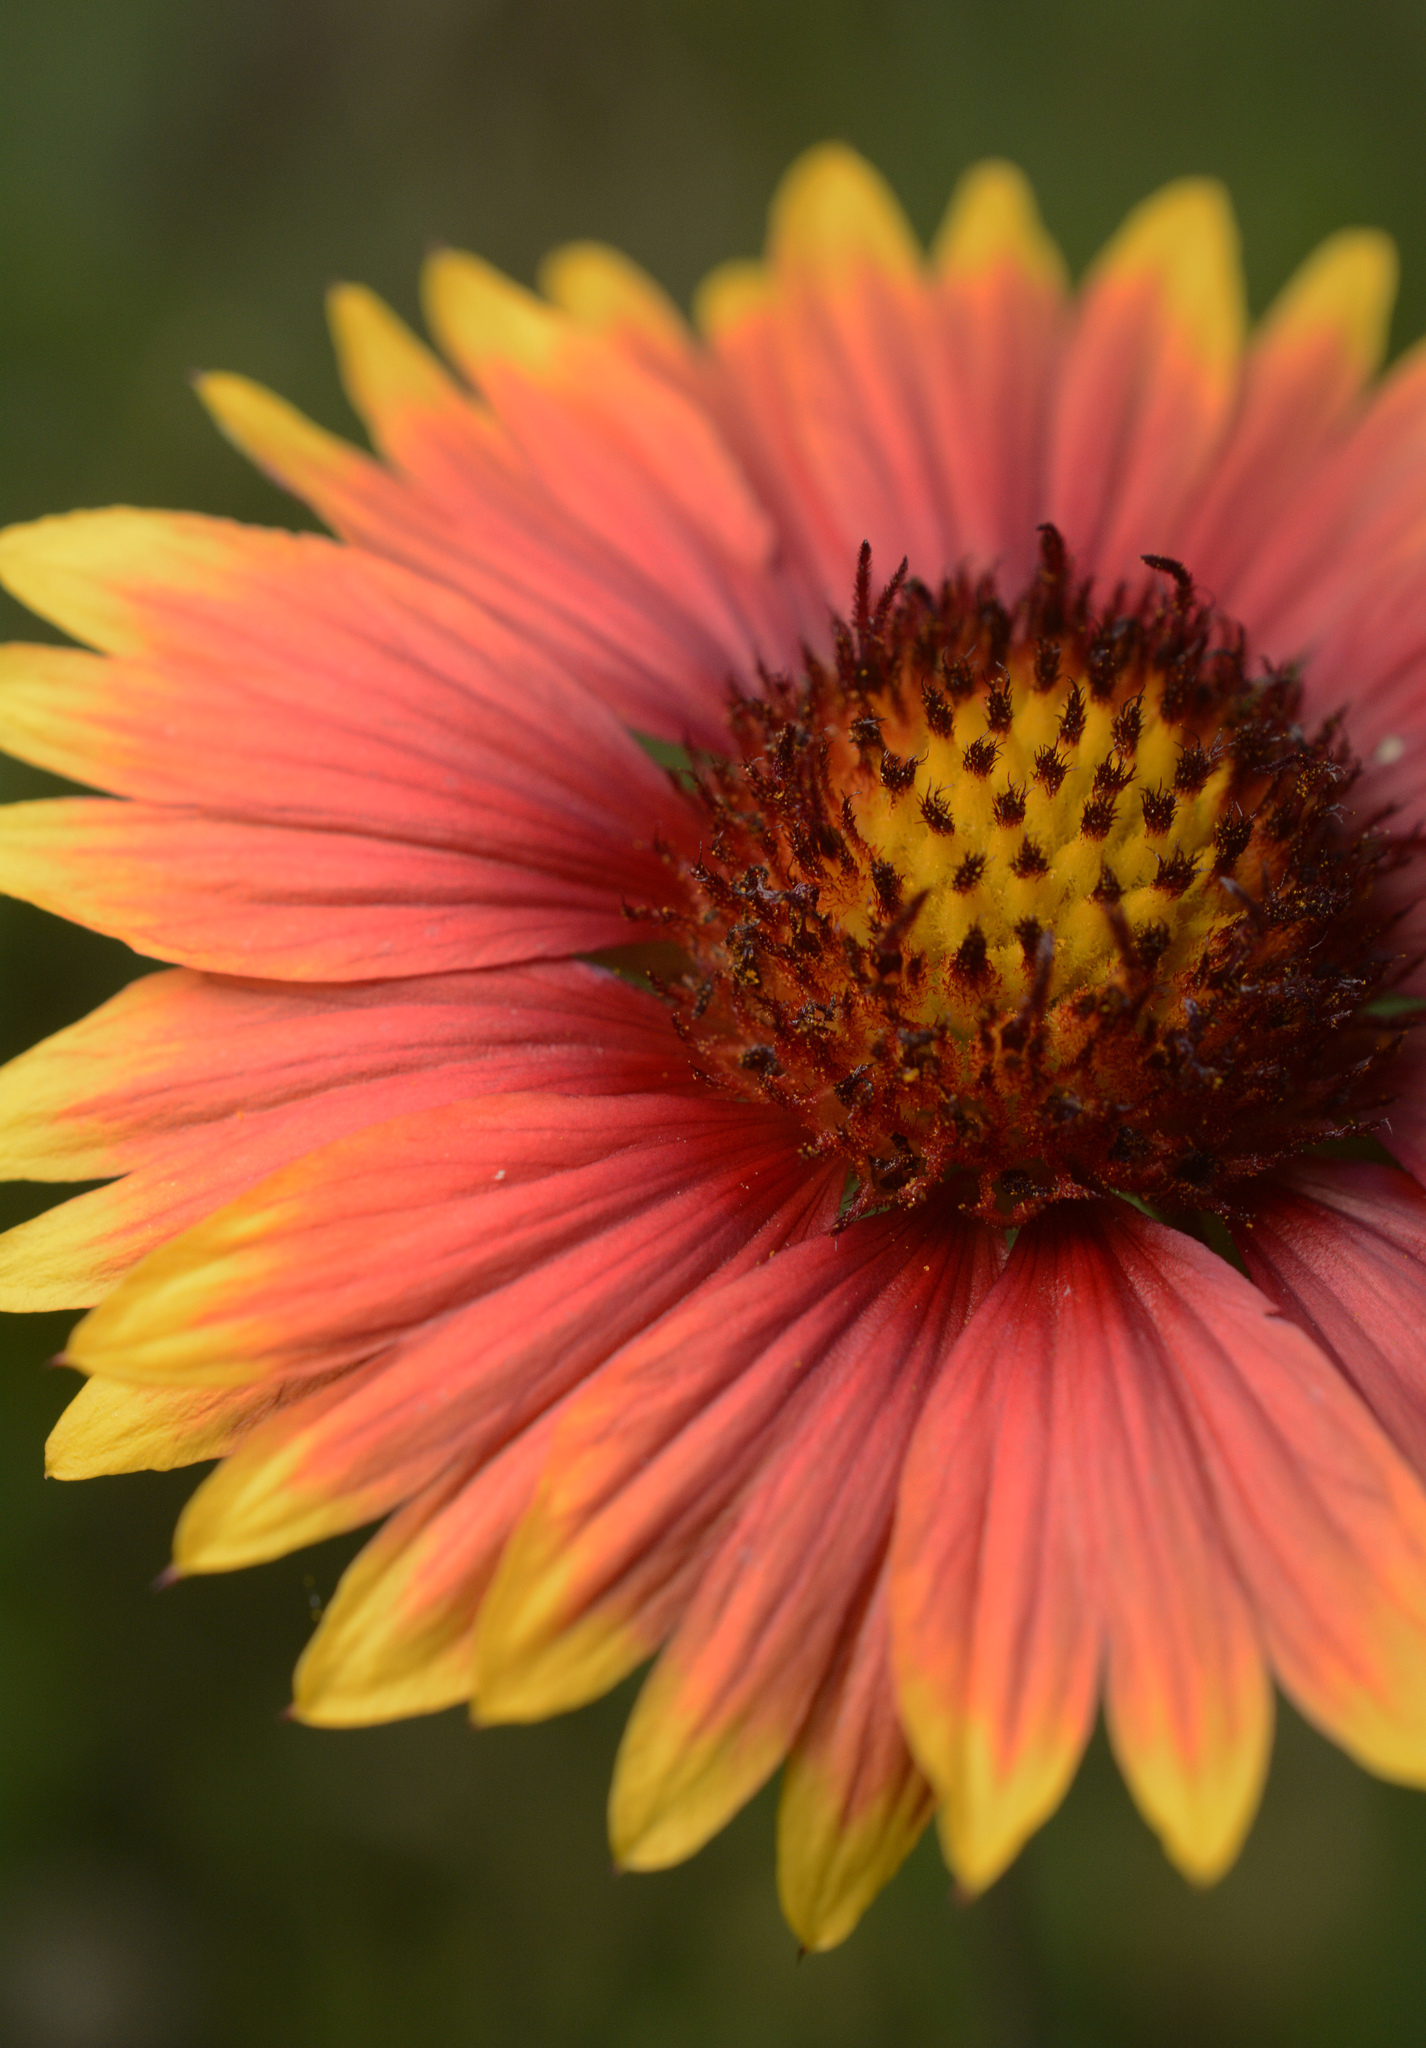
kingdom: Plantae
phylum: Tracheophyta
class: Magnoliopsida
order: Asterales
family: Asteraceae
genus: Gaillardia
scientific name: Gaillardia pulchella
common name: Firewheel
